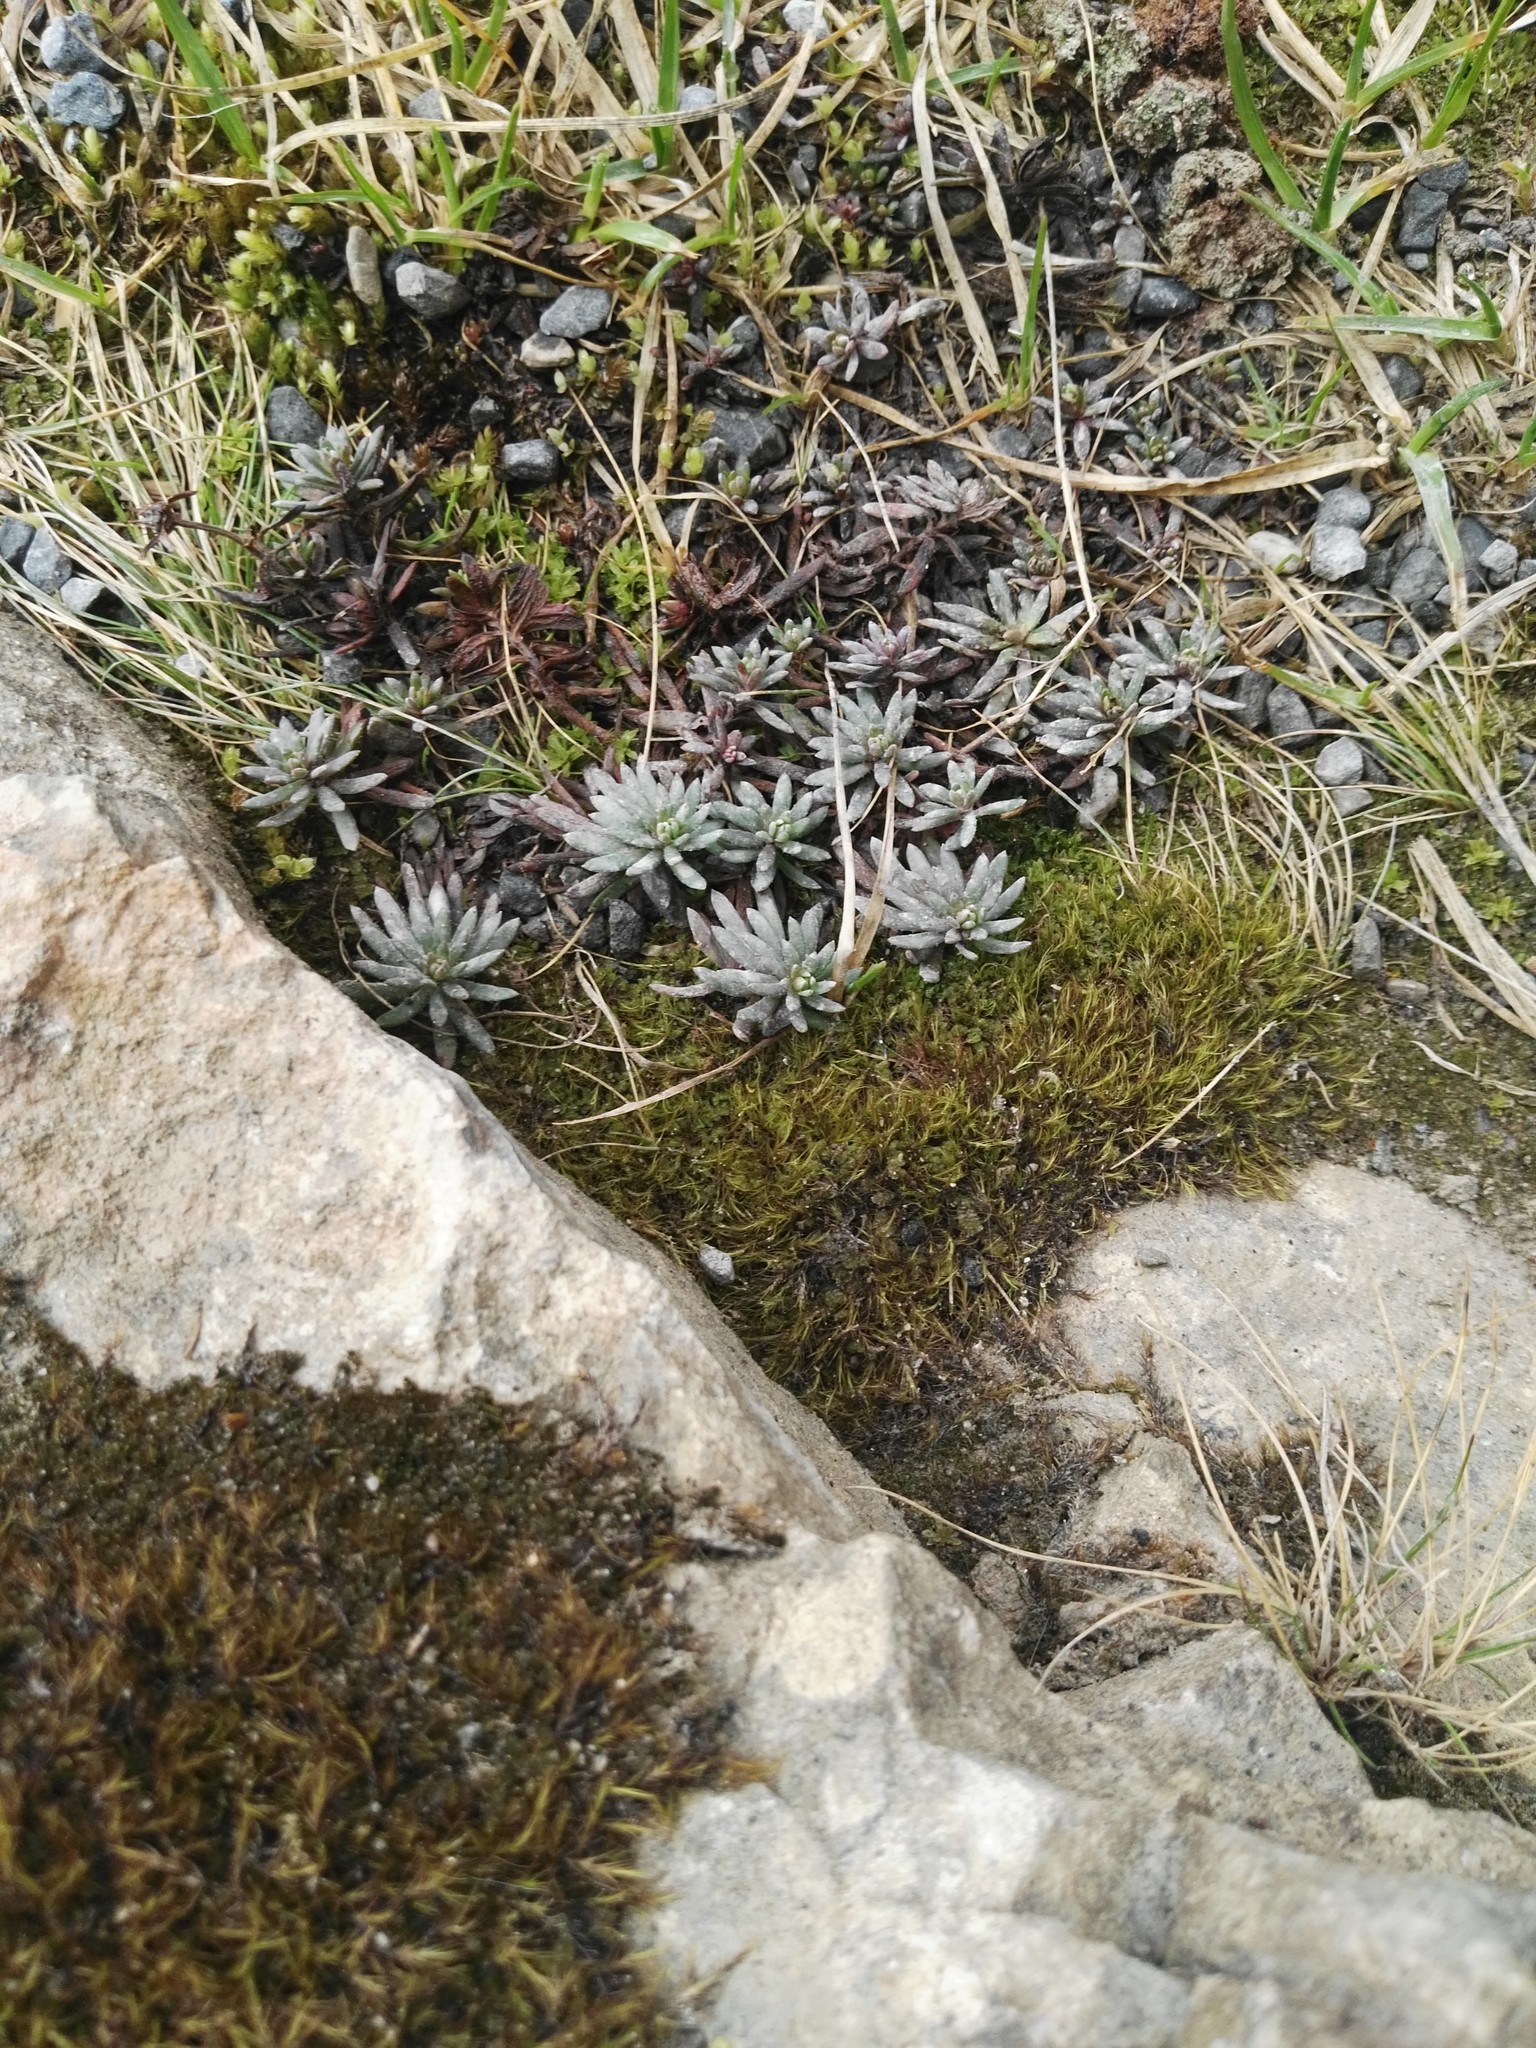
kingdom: Plantae
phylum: Tracheophyta
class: Magnoliopsida
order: Saxifragales
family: Saxifragaceae
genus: Saxifraga
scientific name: Saxifraga aizoides
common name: Yellow mountain saxifrage
